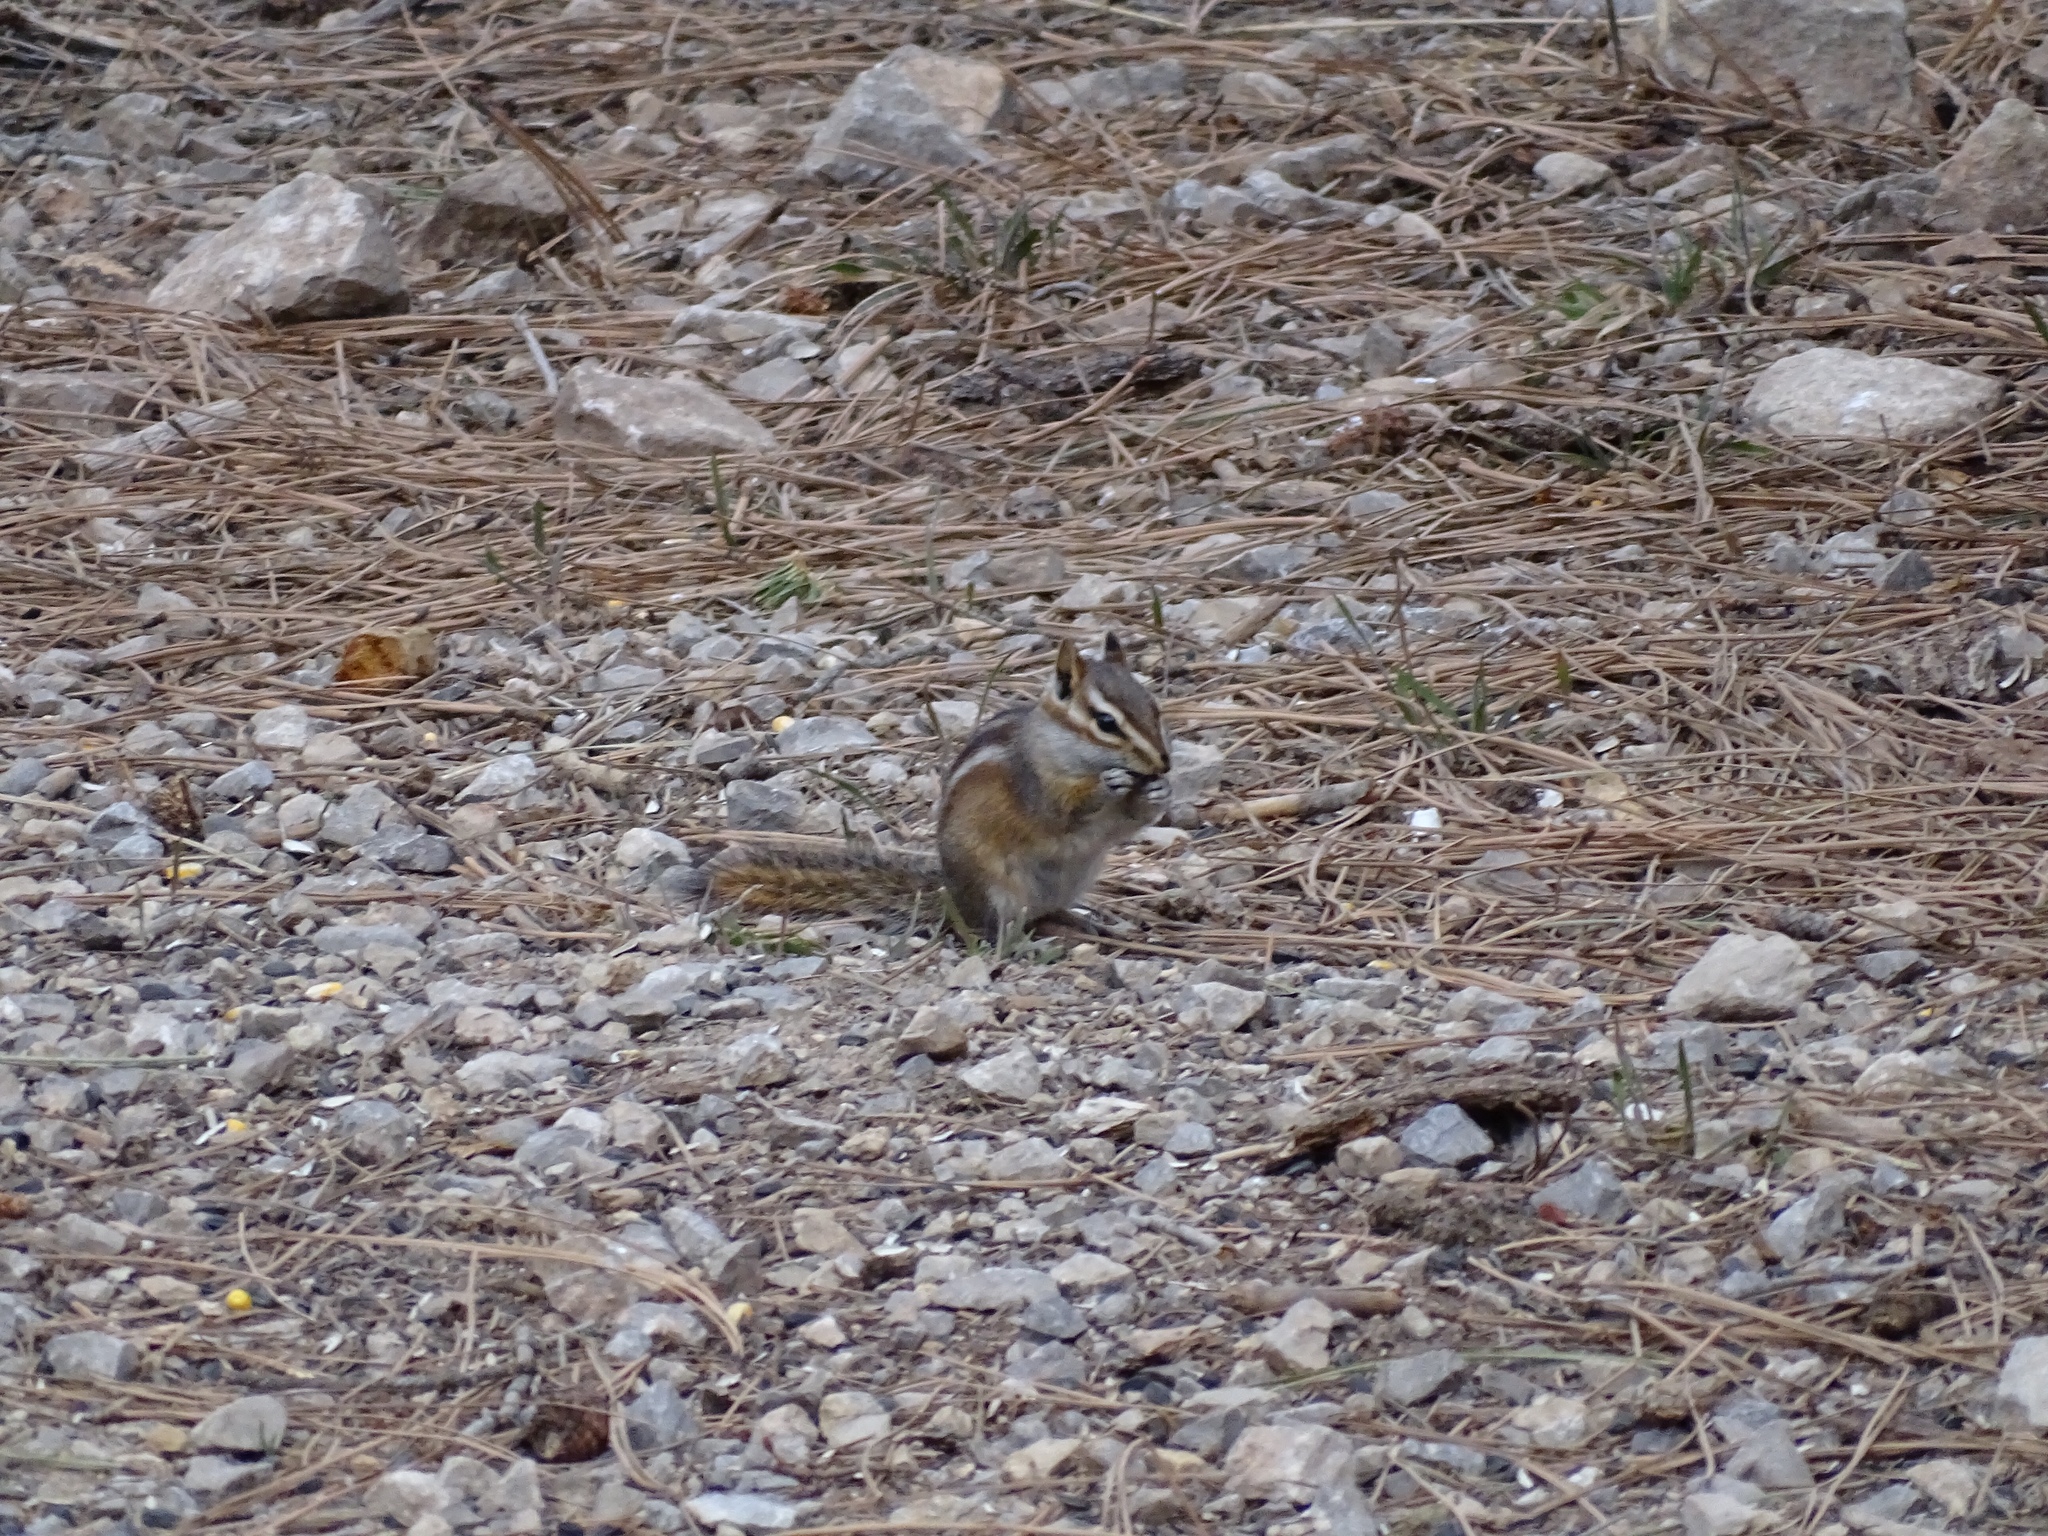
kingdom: Animalia
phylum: Chordata
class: Mammalia
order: Rodentia
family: Sciuridae
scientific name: Sciuridae
